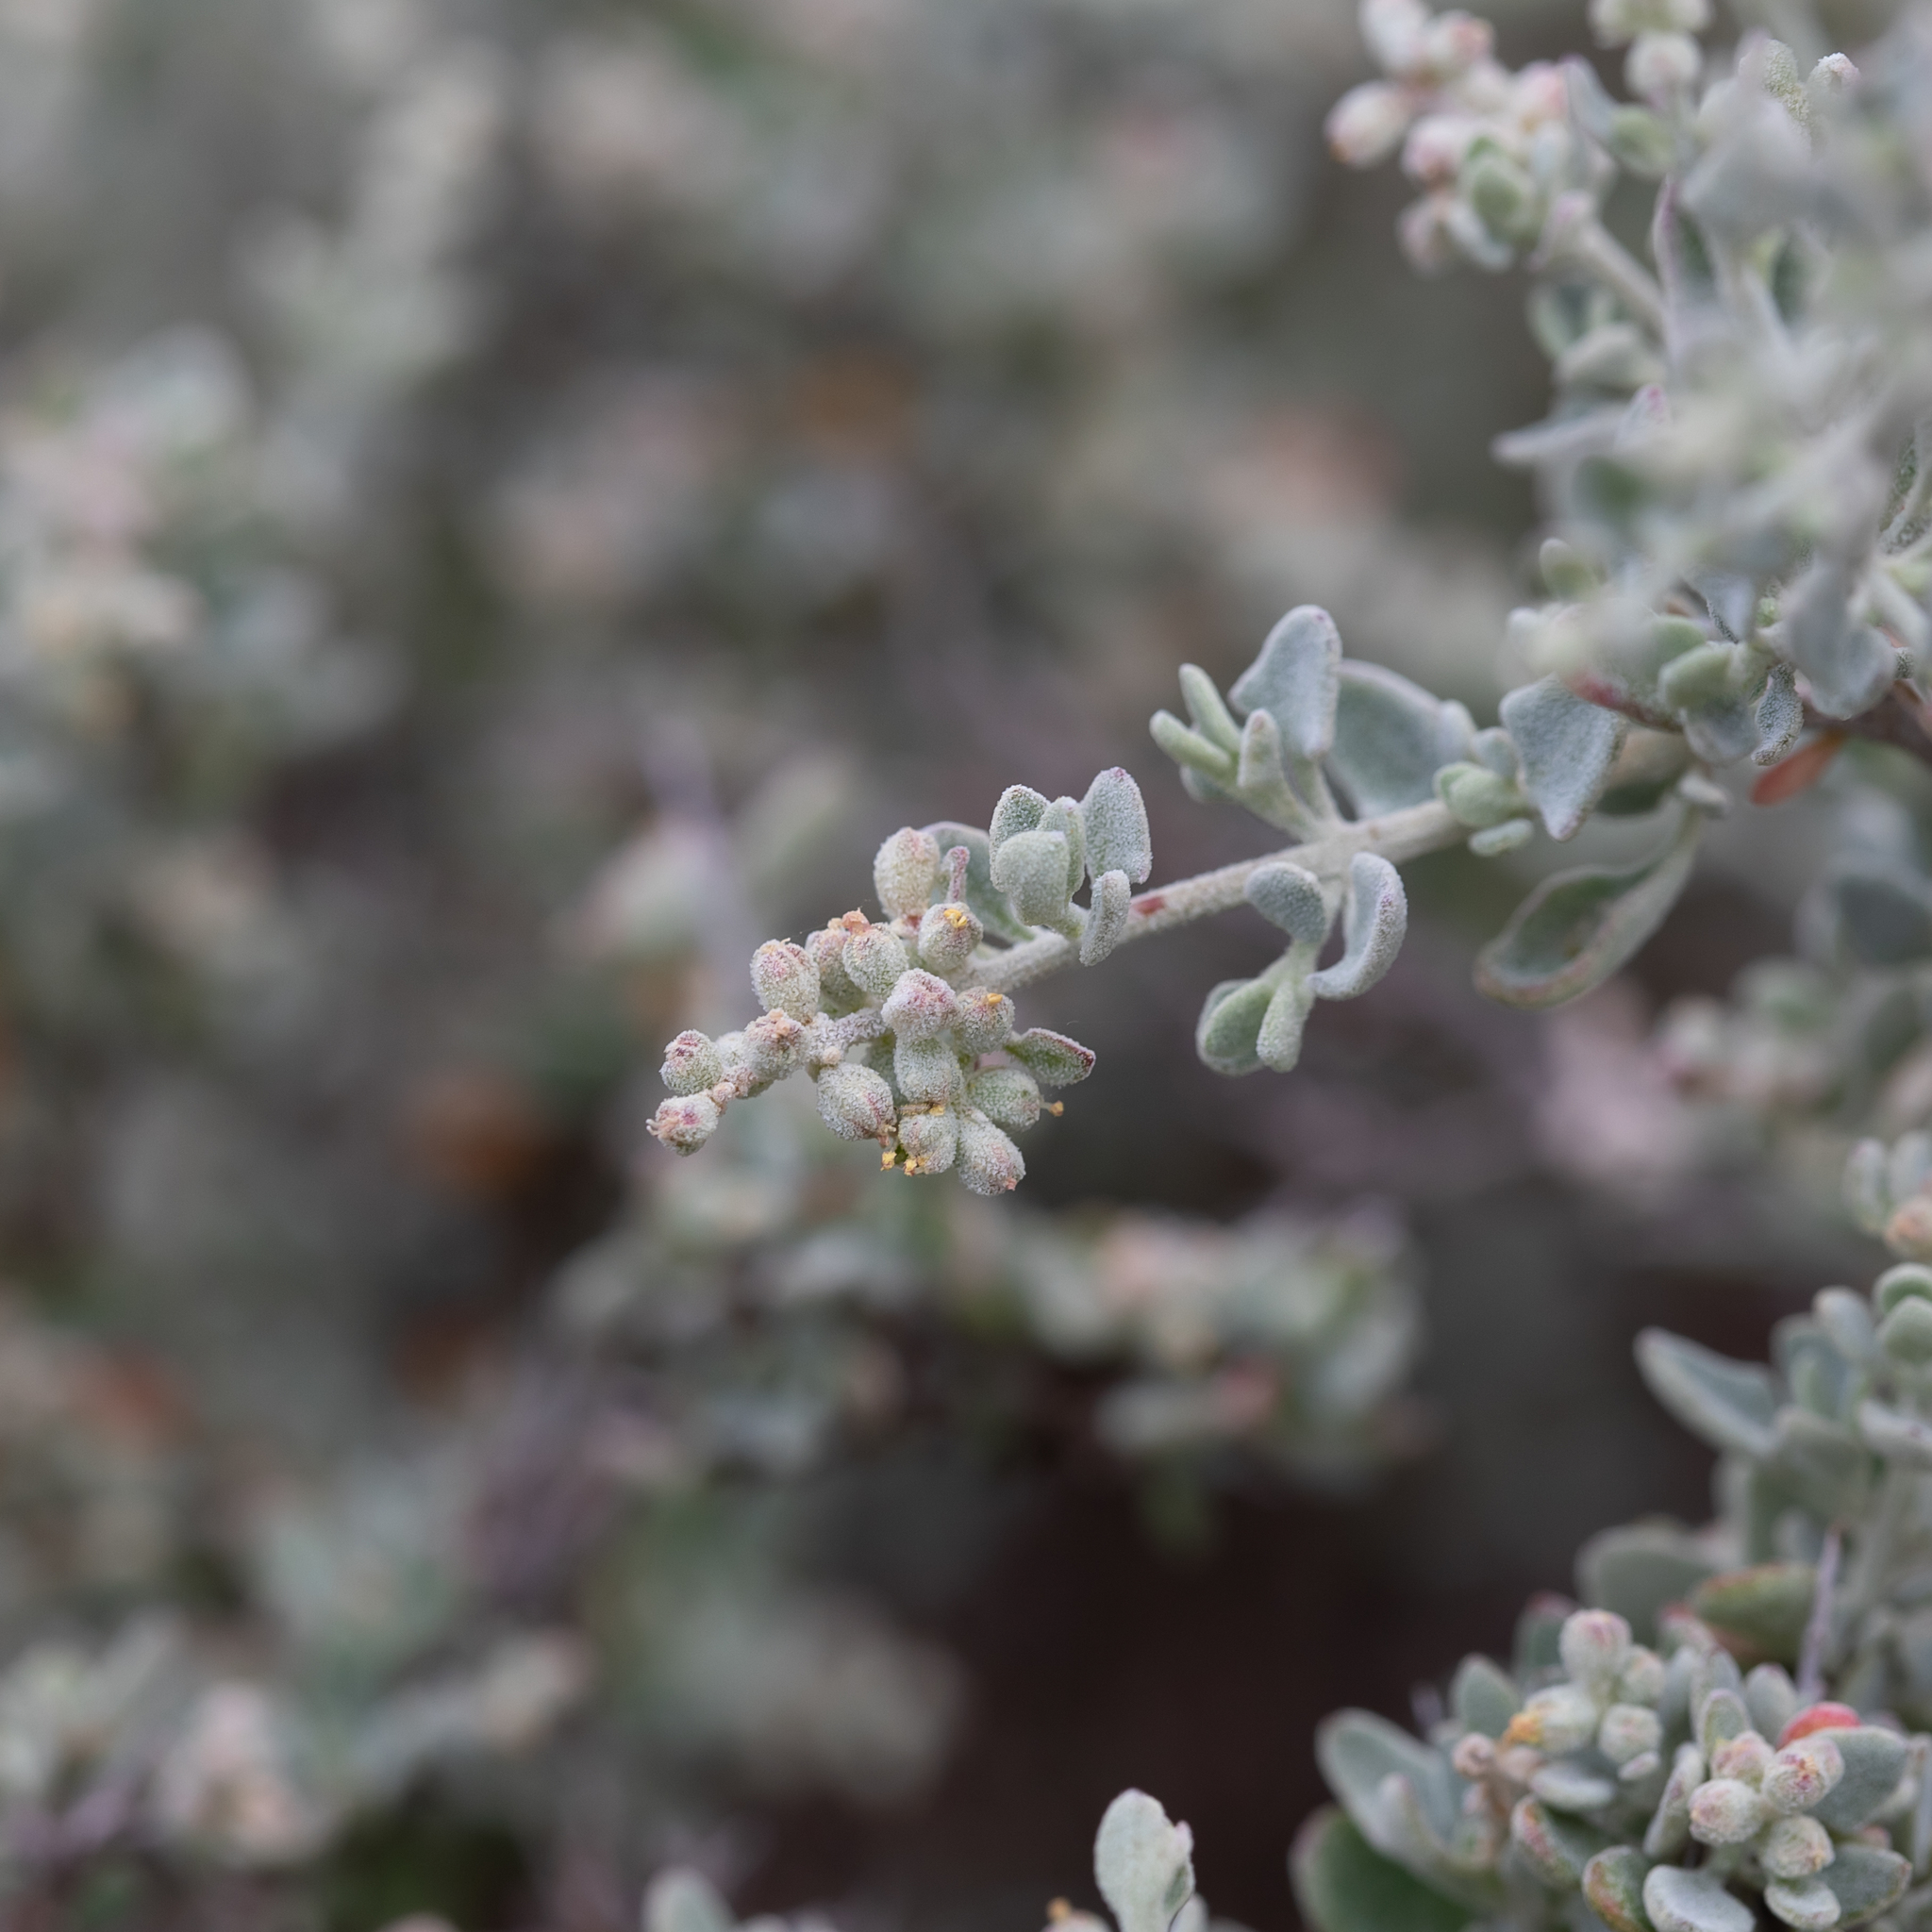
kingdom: Plantae
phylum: Tracheophyta
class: Magnoliopsida
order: Caryophyllales
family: Amaranthaceae
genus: Chenopodium
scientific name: Chenopodium spinescens
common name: Berry-saltbush
